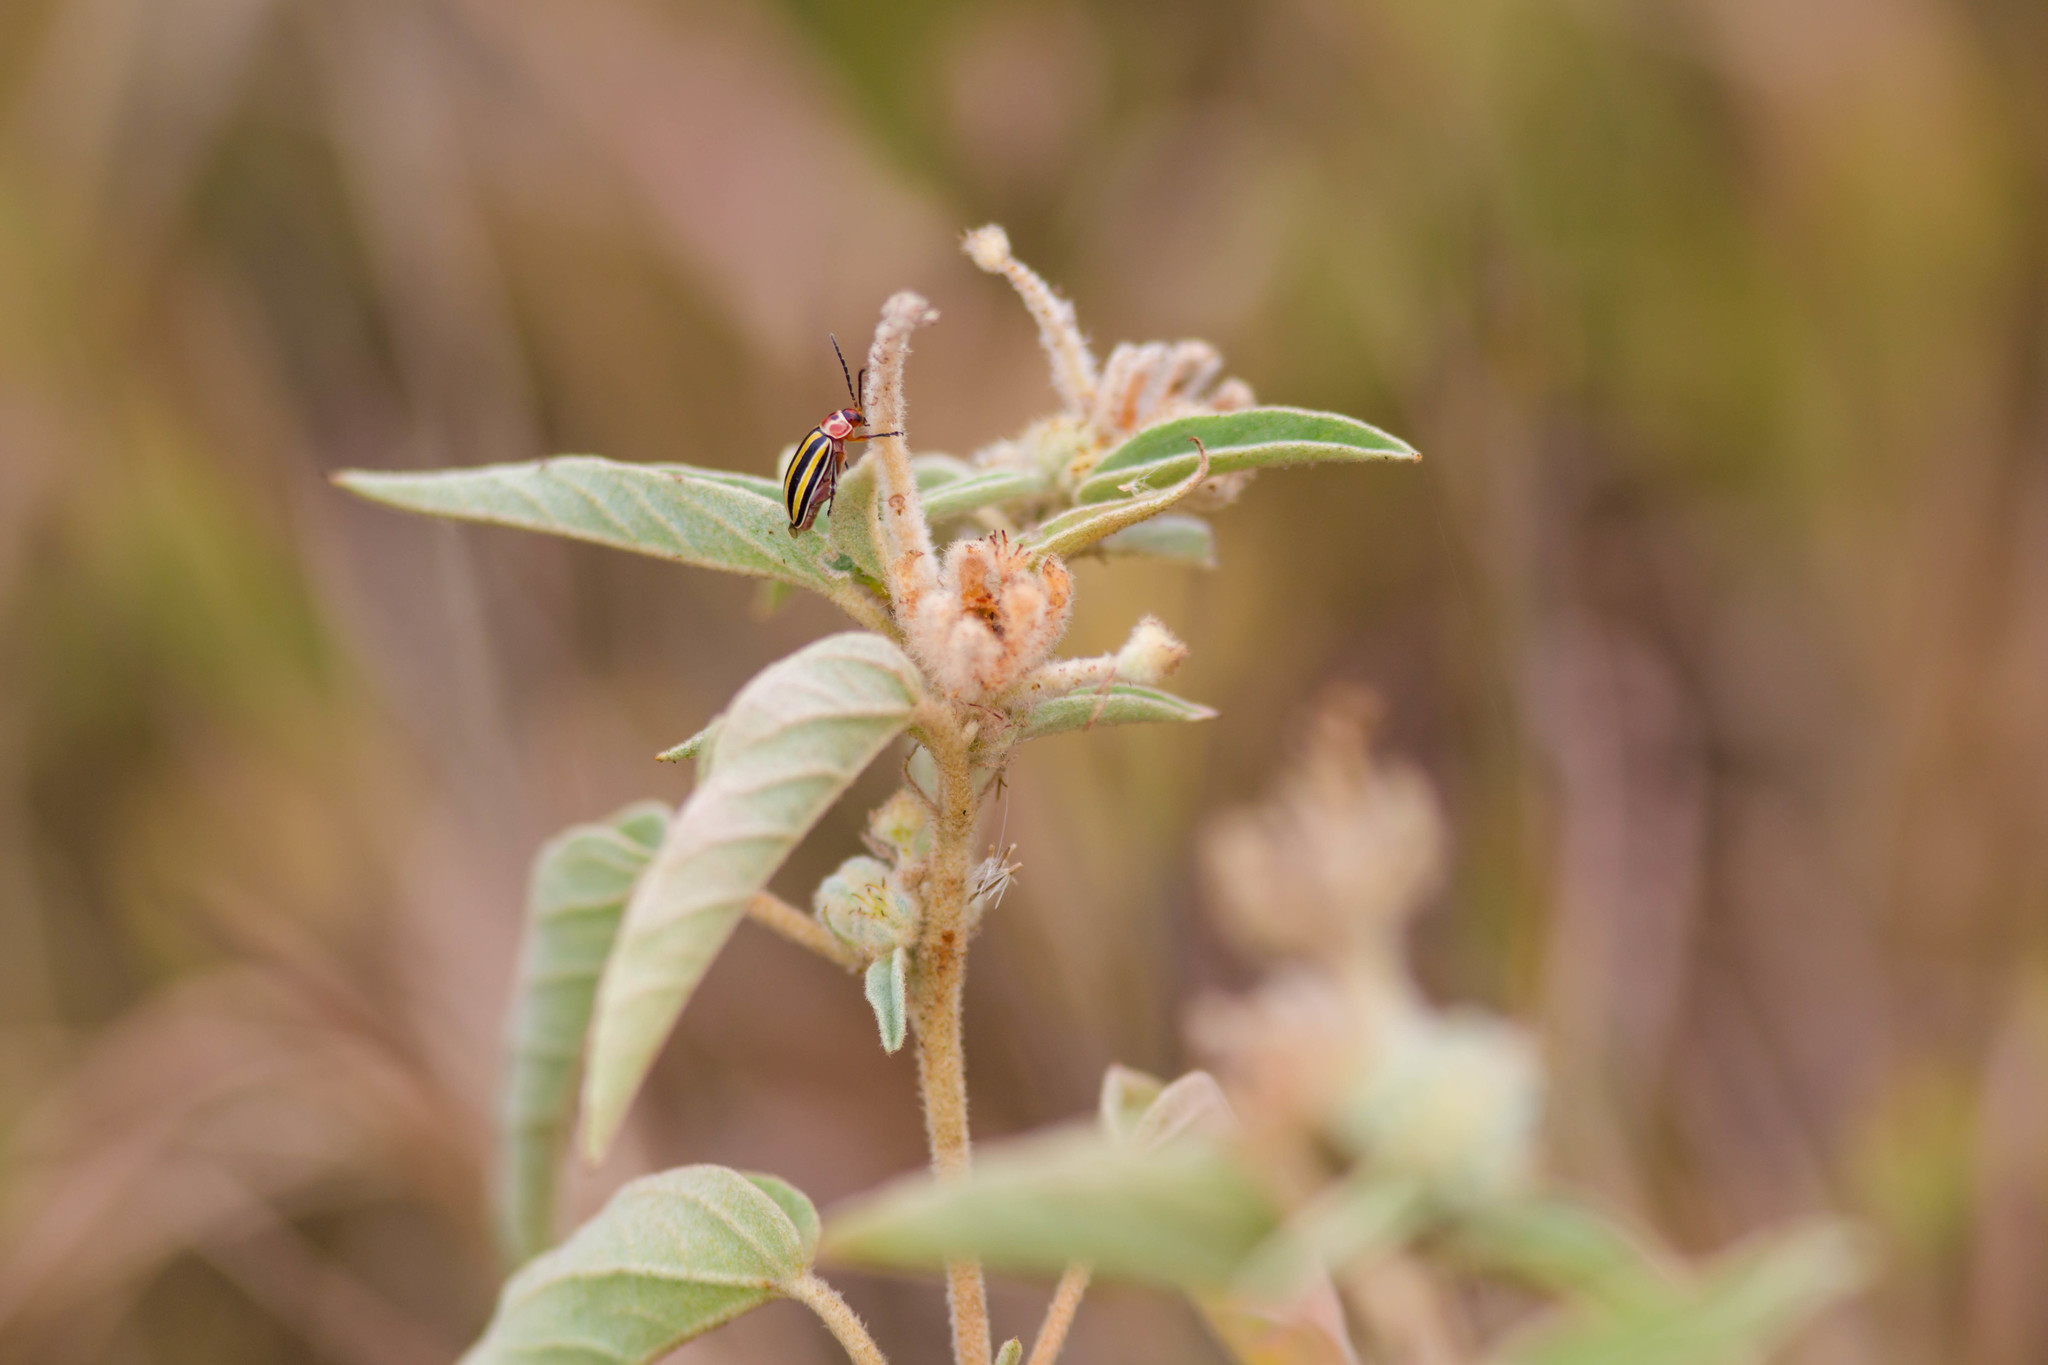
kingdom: Animalia
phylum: Arthropoda
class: Insecta
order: Coleoptera
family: Chrysomelidae
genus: Disonycha
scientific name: Disonycha fumata
